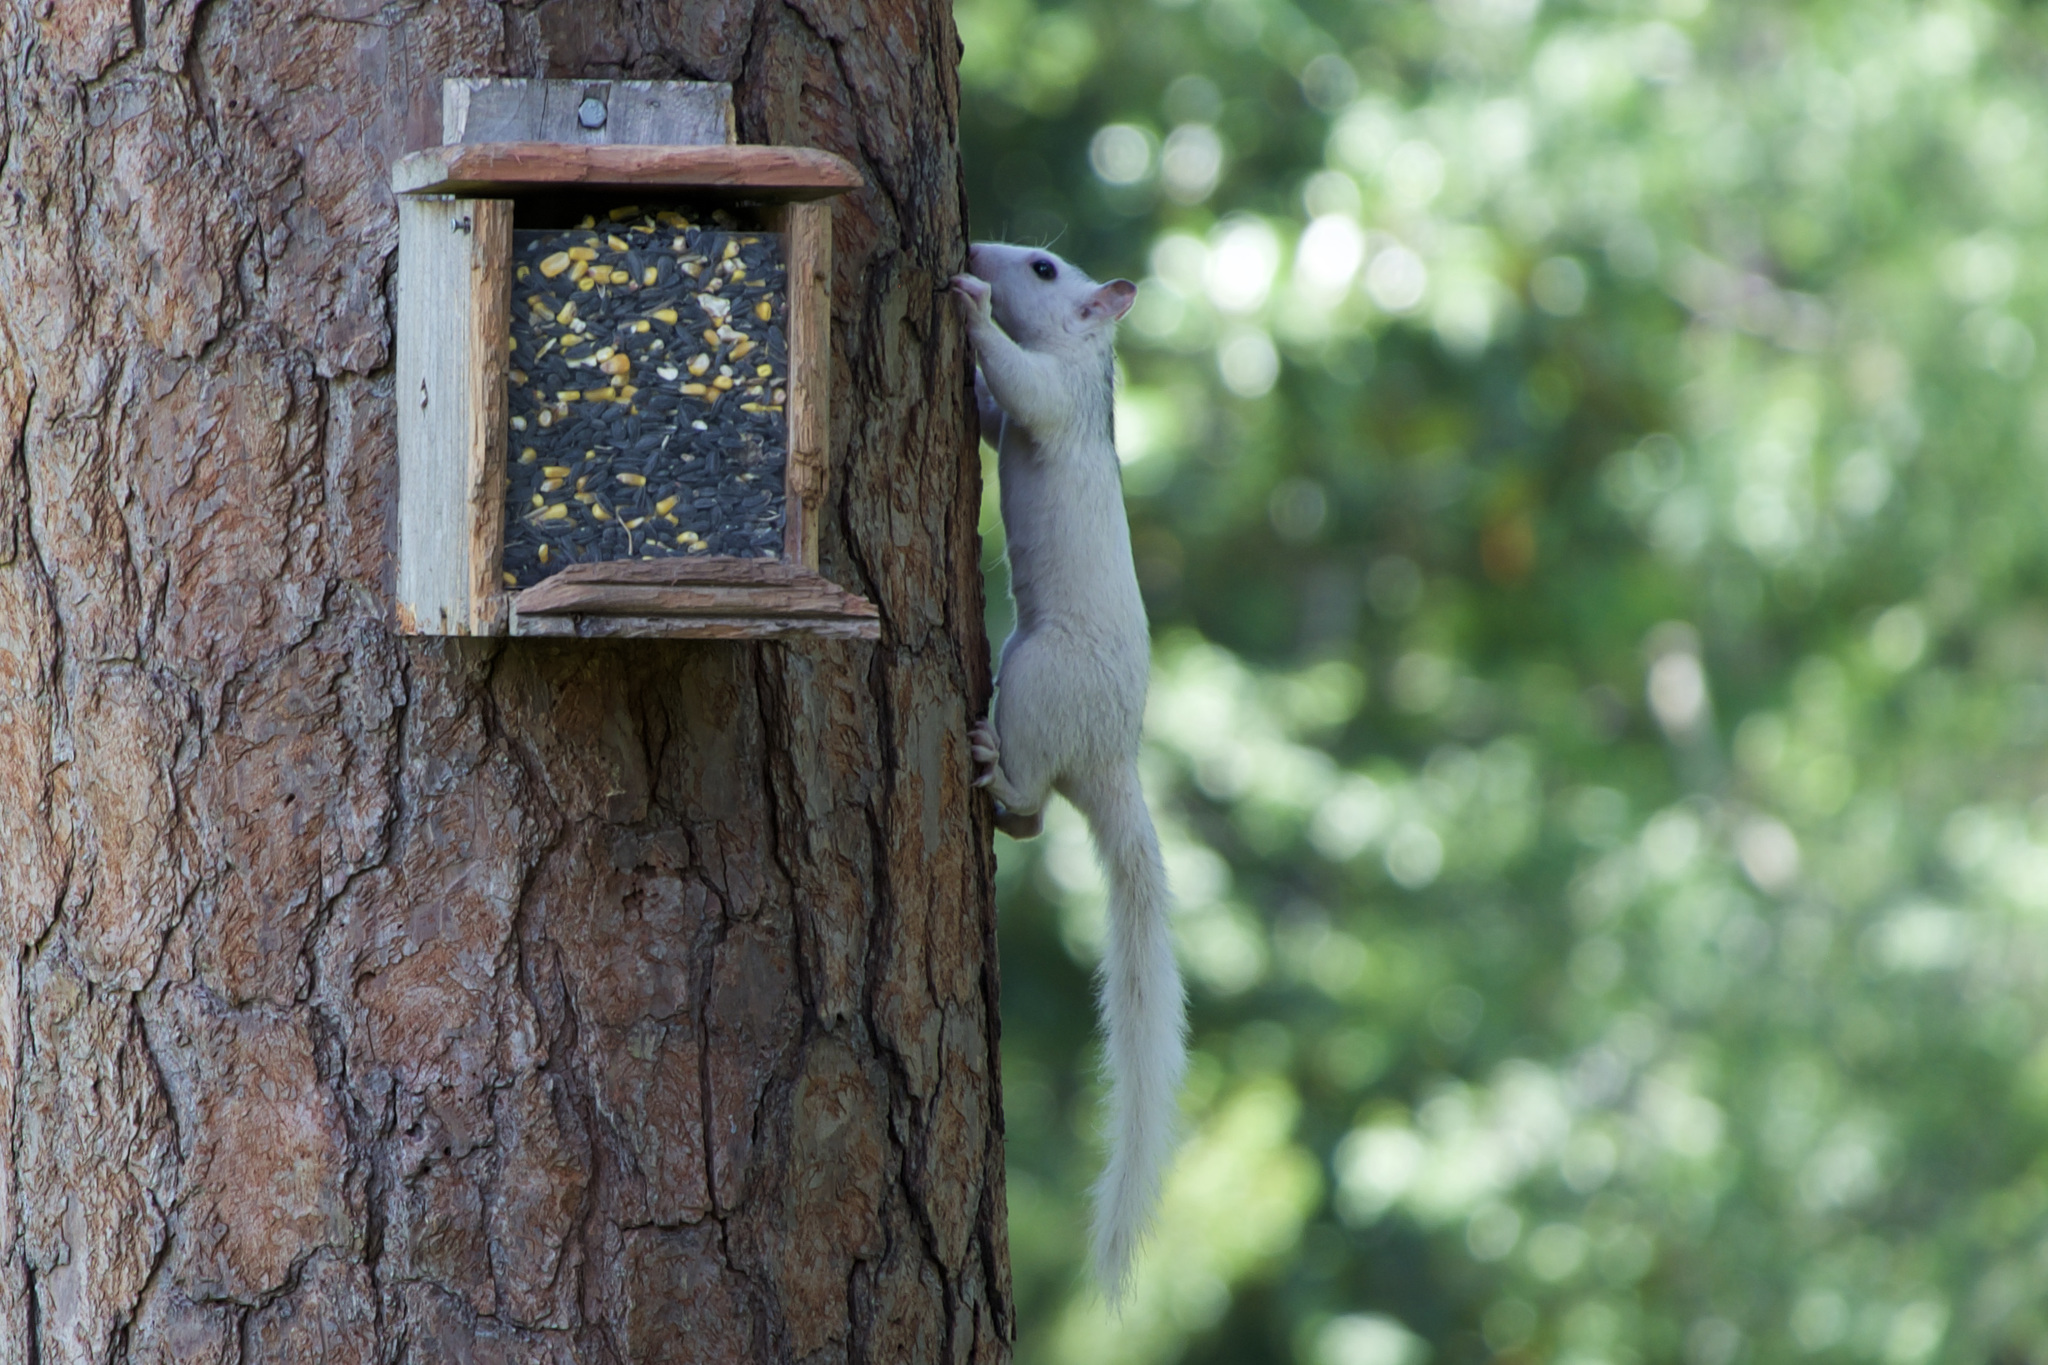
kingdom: Animalia
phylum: Chordata
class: Mammalia
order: Rodentia
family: Sciuridae
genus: Sciurus
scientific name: Sciurus carolinensis
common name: Eastern gray squirrel
